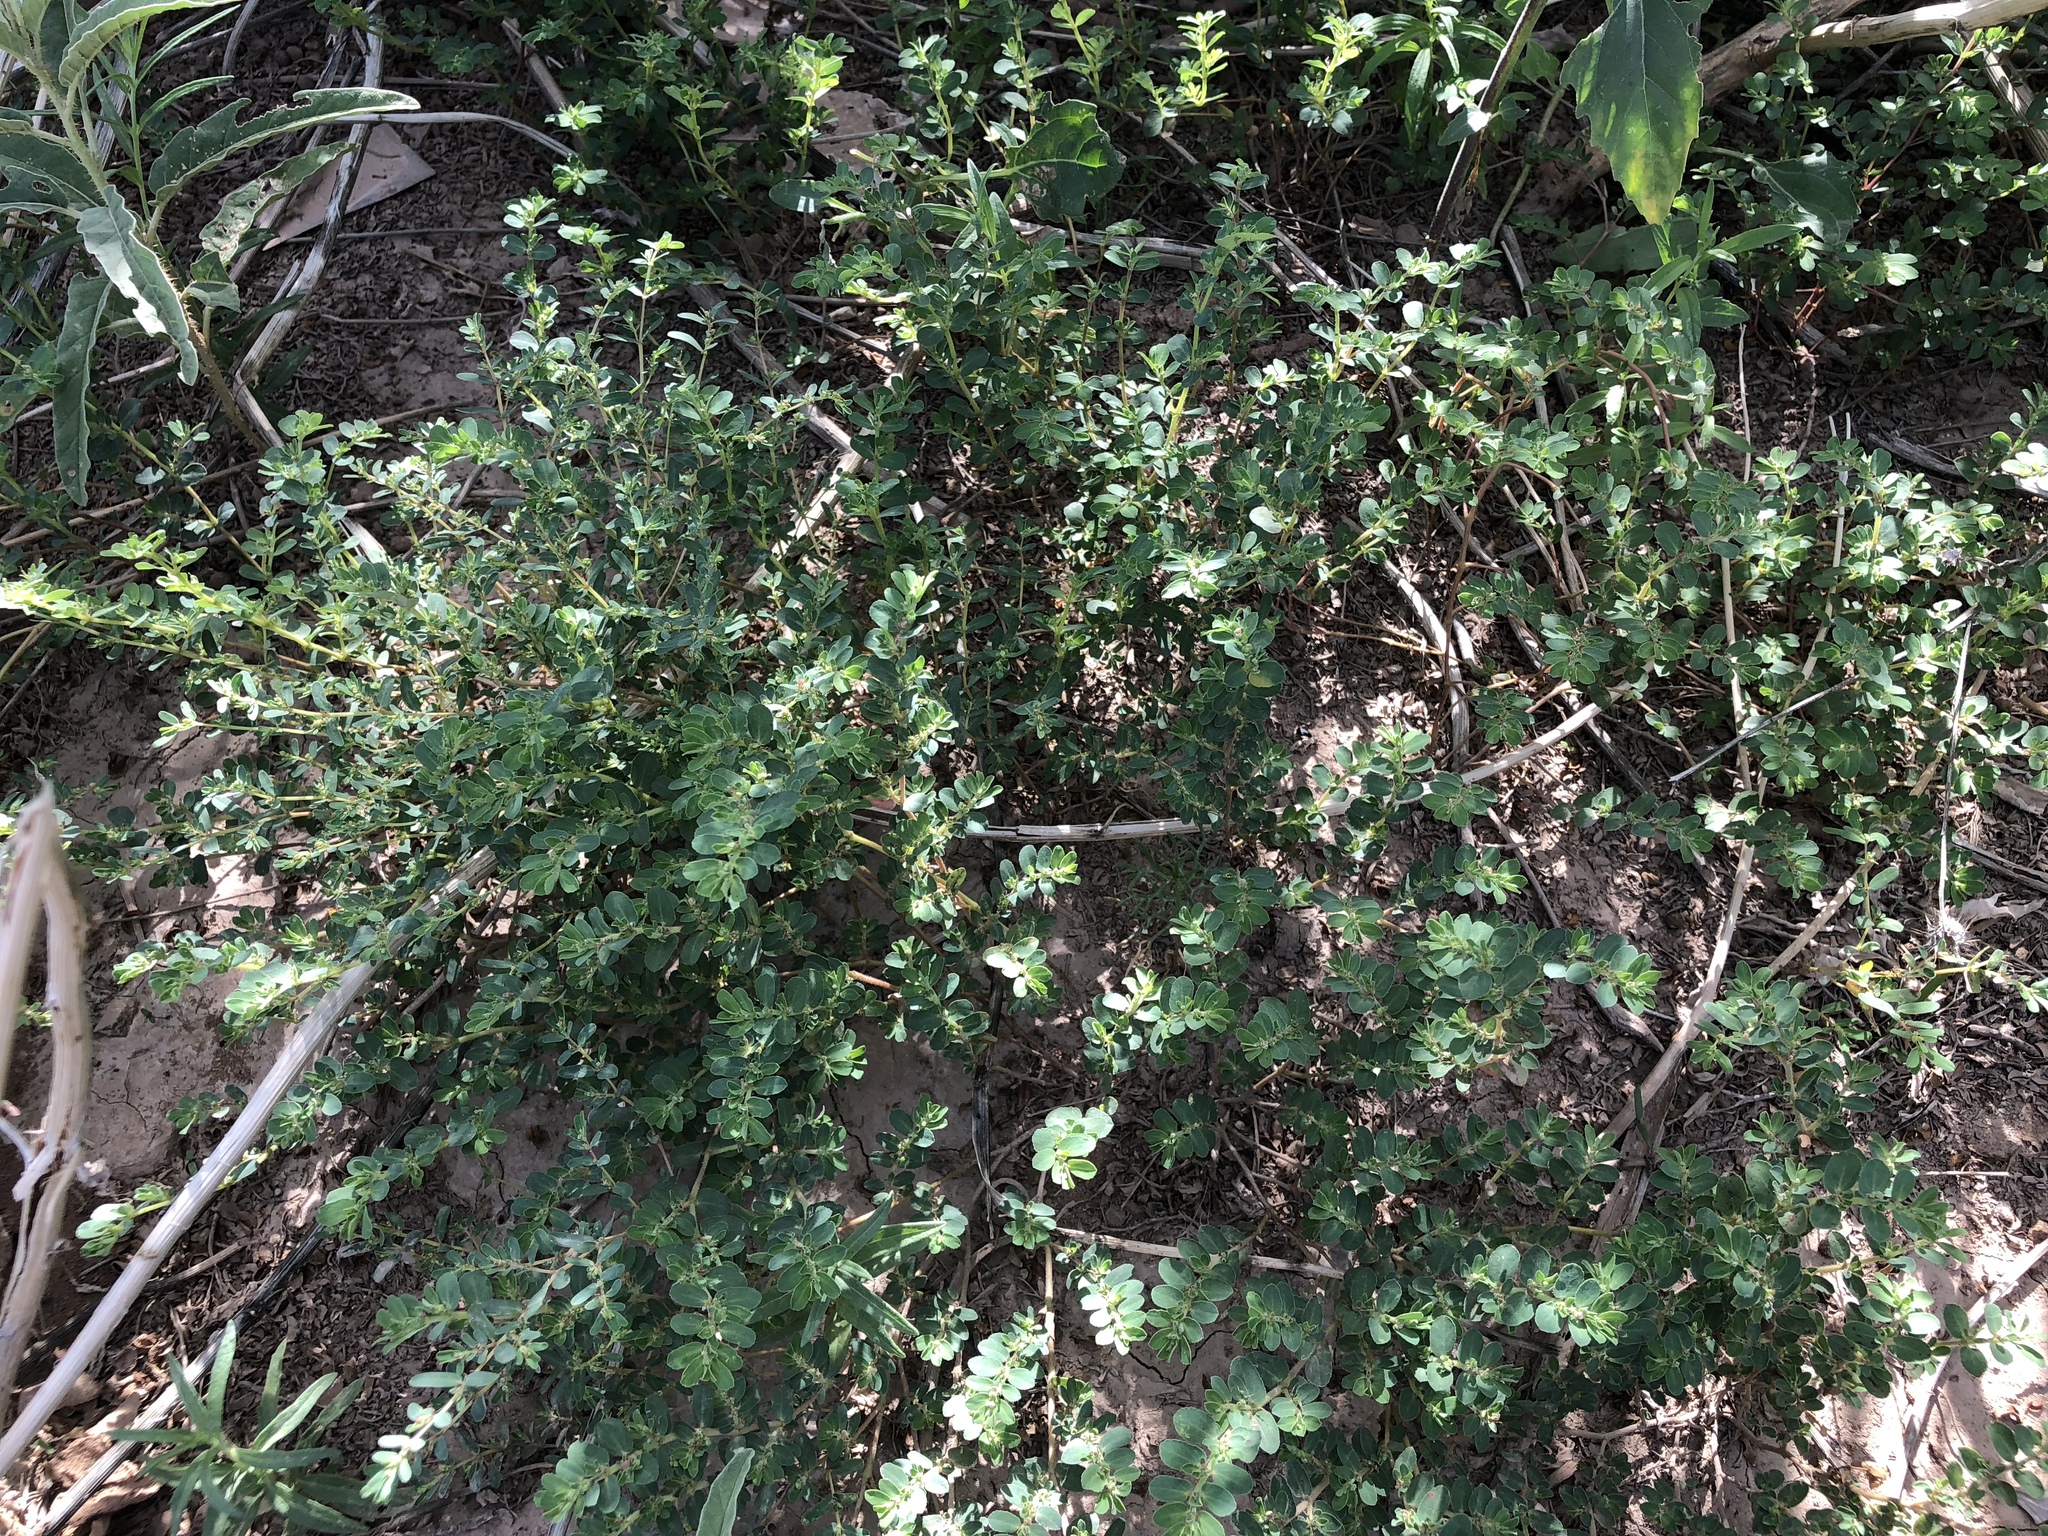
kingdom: Plantae
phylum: Tracheophyta
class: Magnoliopsida
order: Malpighiales
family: Euphorbiaceae
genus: Euphorbia
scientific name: Euphorbia stictospora
